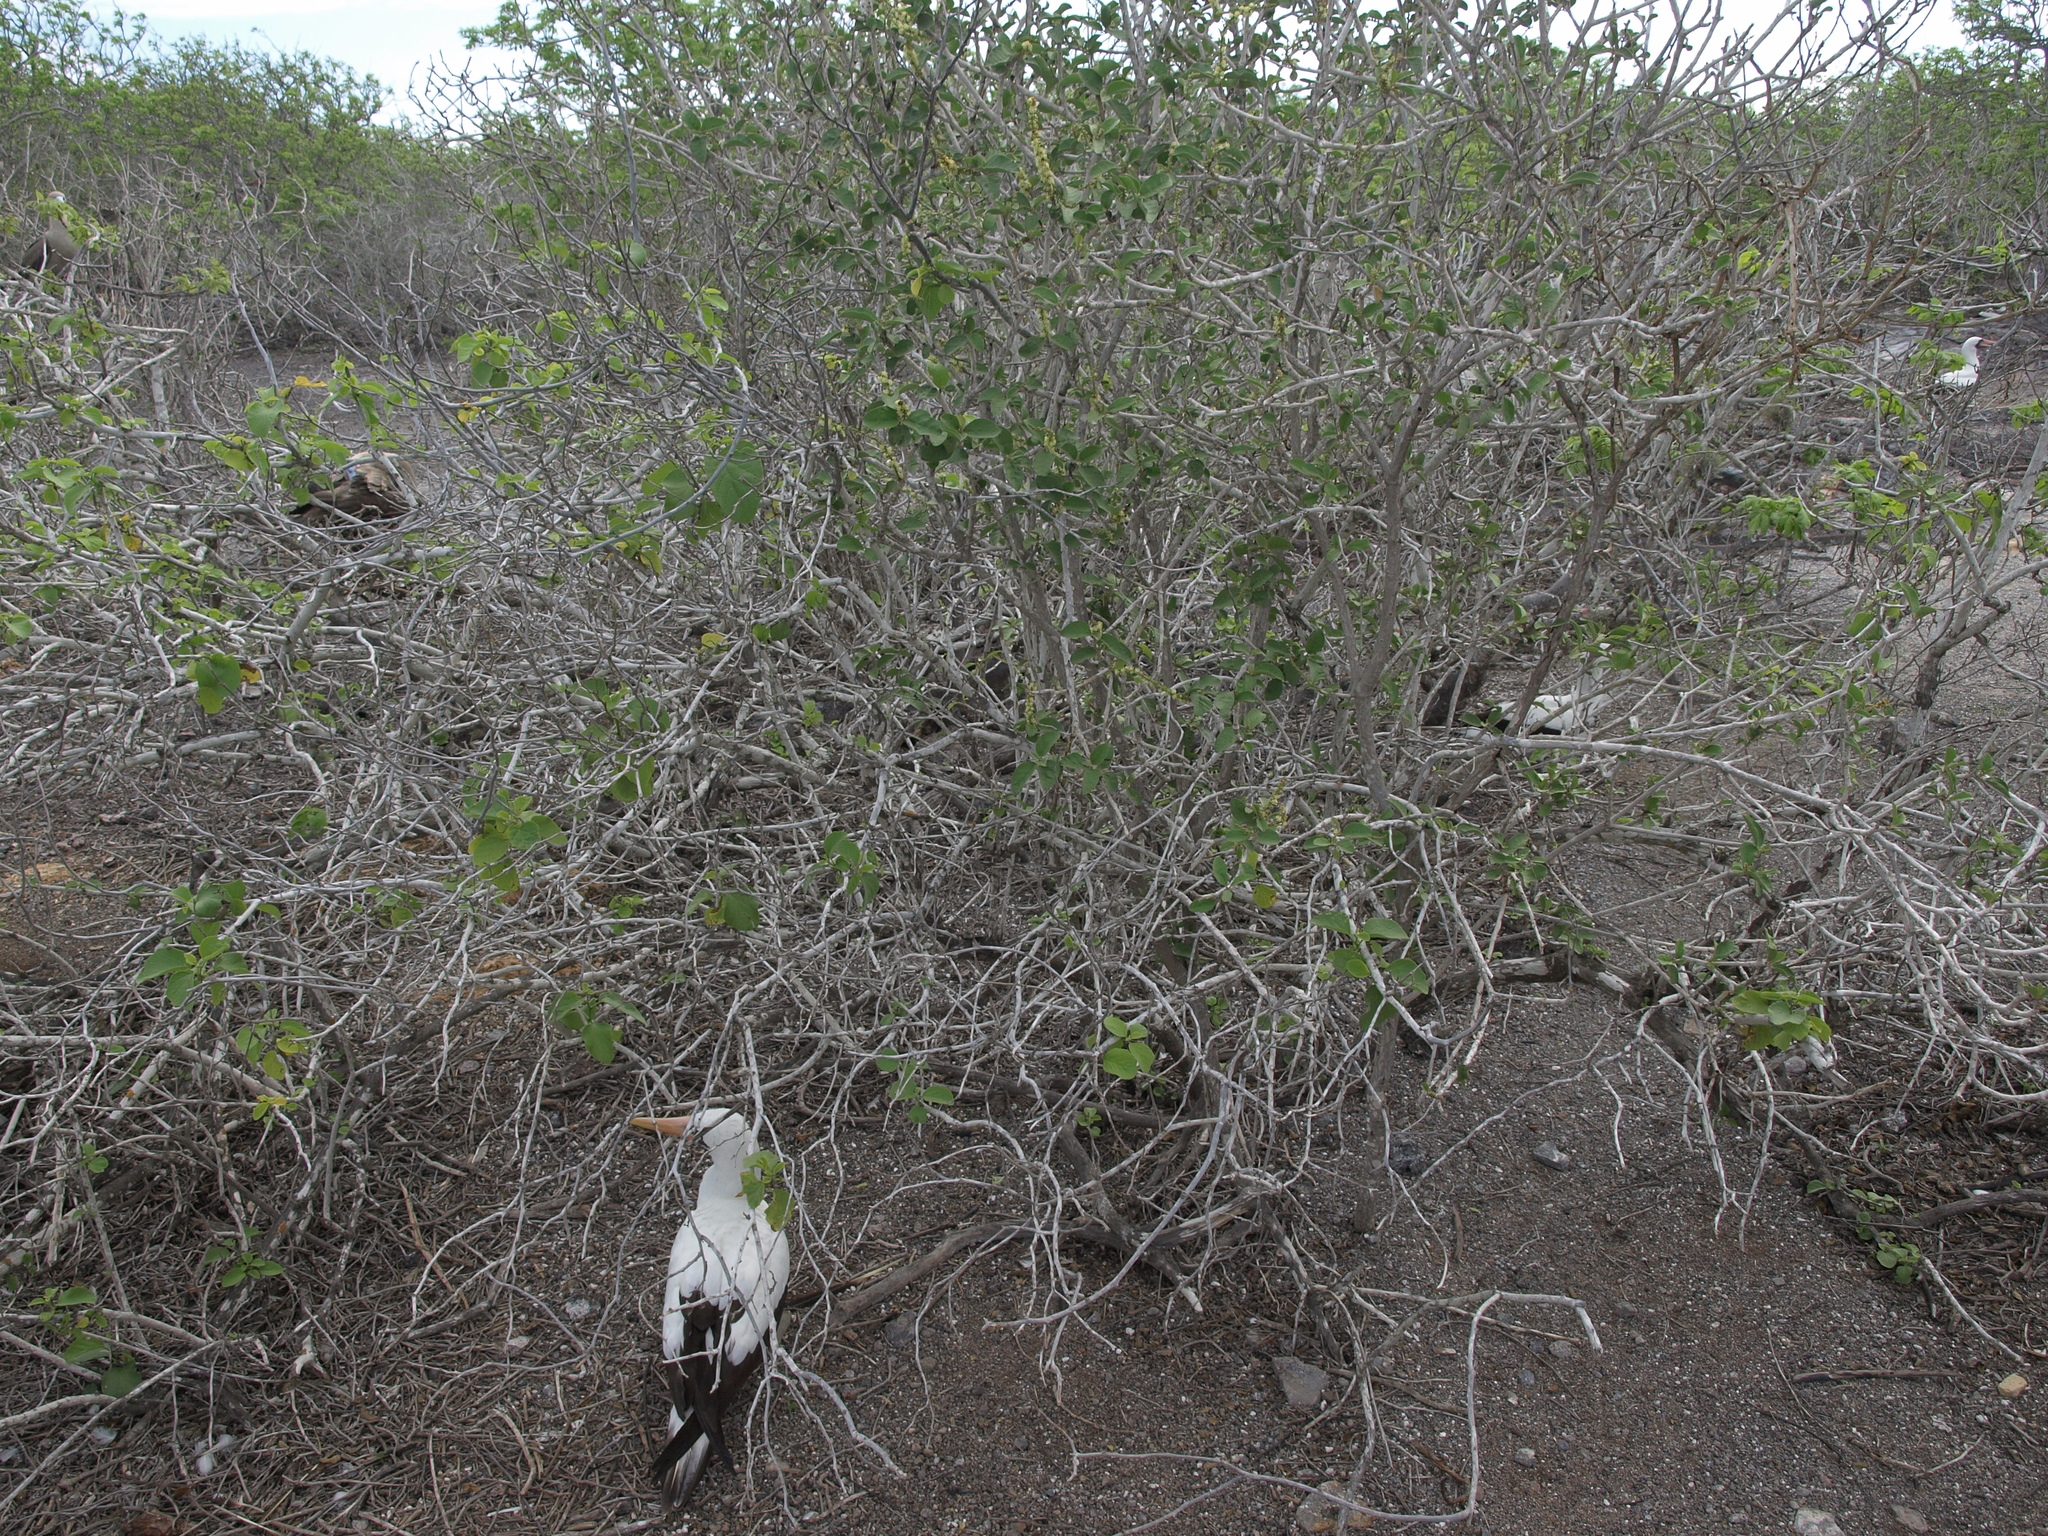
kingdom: Plantae
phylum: Tracheophyta
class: Magnoliopsida
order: Malpighiales
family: Euphorbiaceae
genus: Croton
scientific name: Croton scouleri
